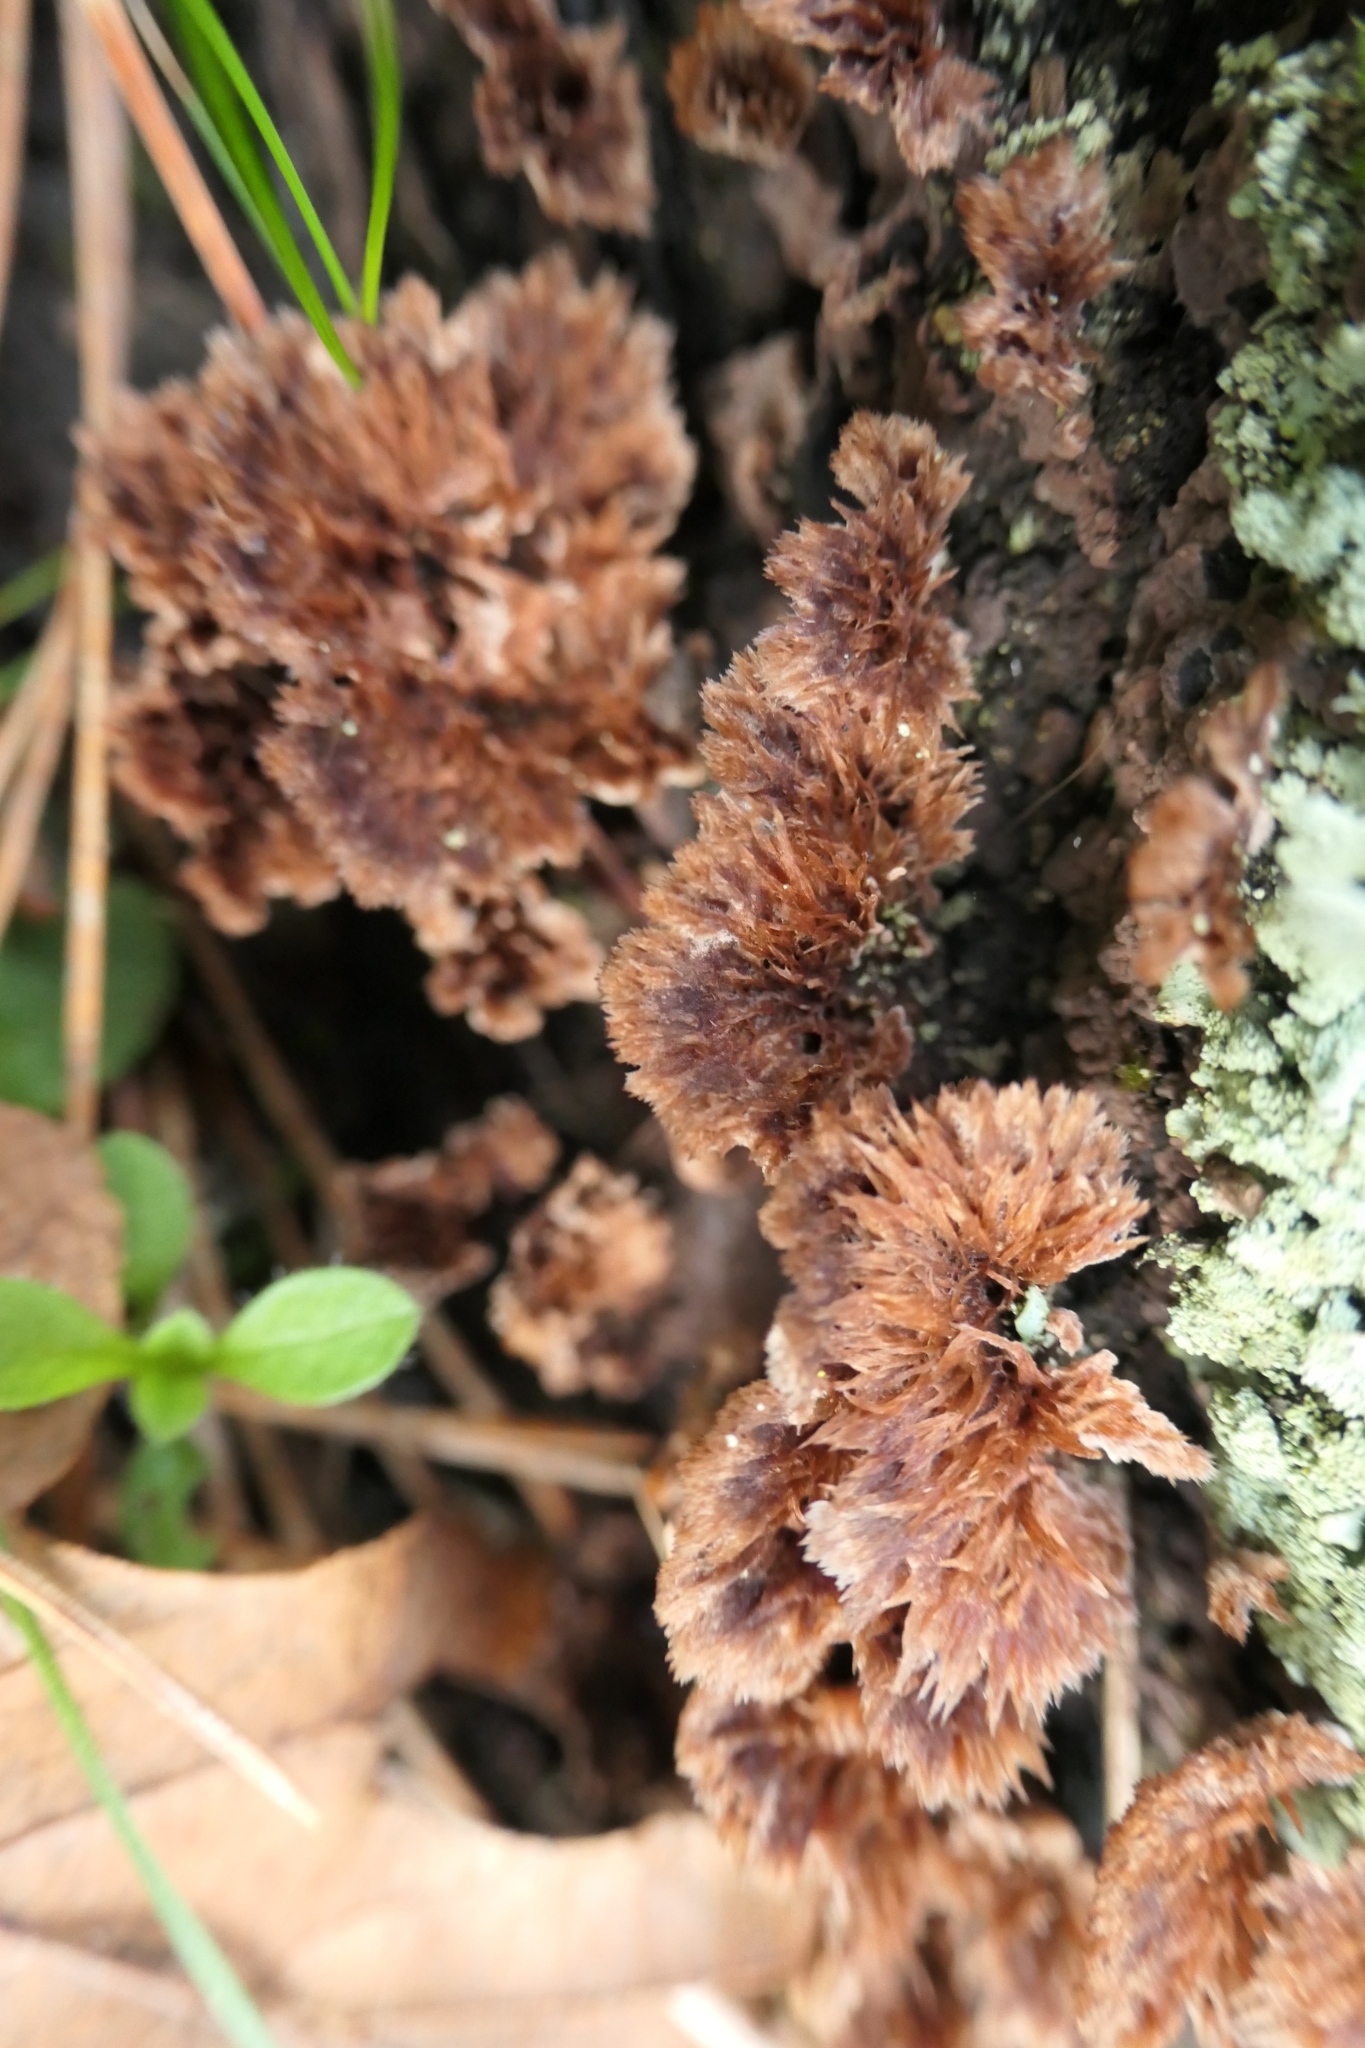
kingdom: Fungi
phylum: Basidiomycota
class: Agaricomycetes
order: Thelephorales
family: Thelephoraceae
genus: Thelephora
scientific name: Thelephora terrestris
